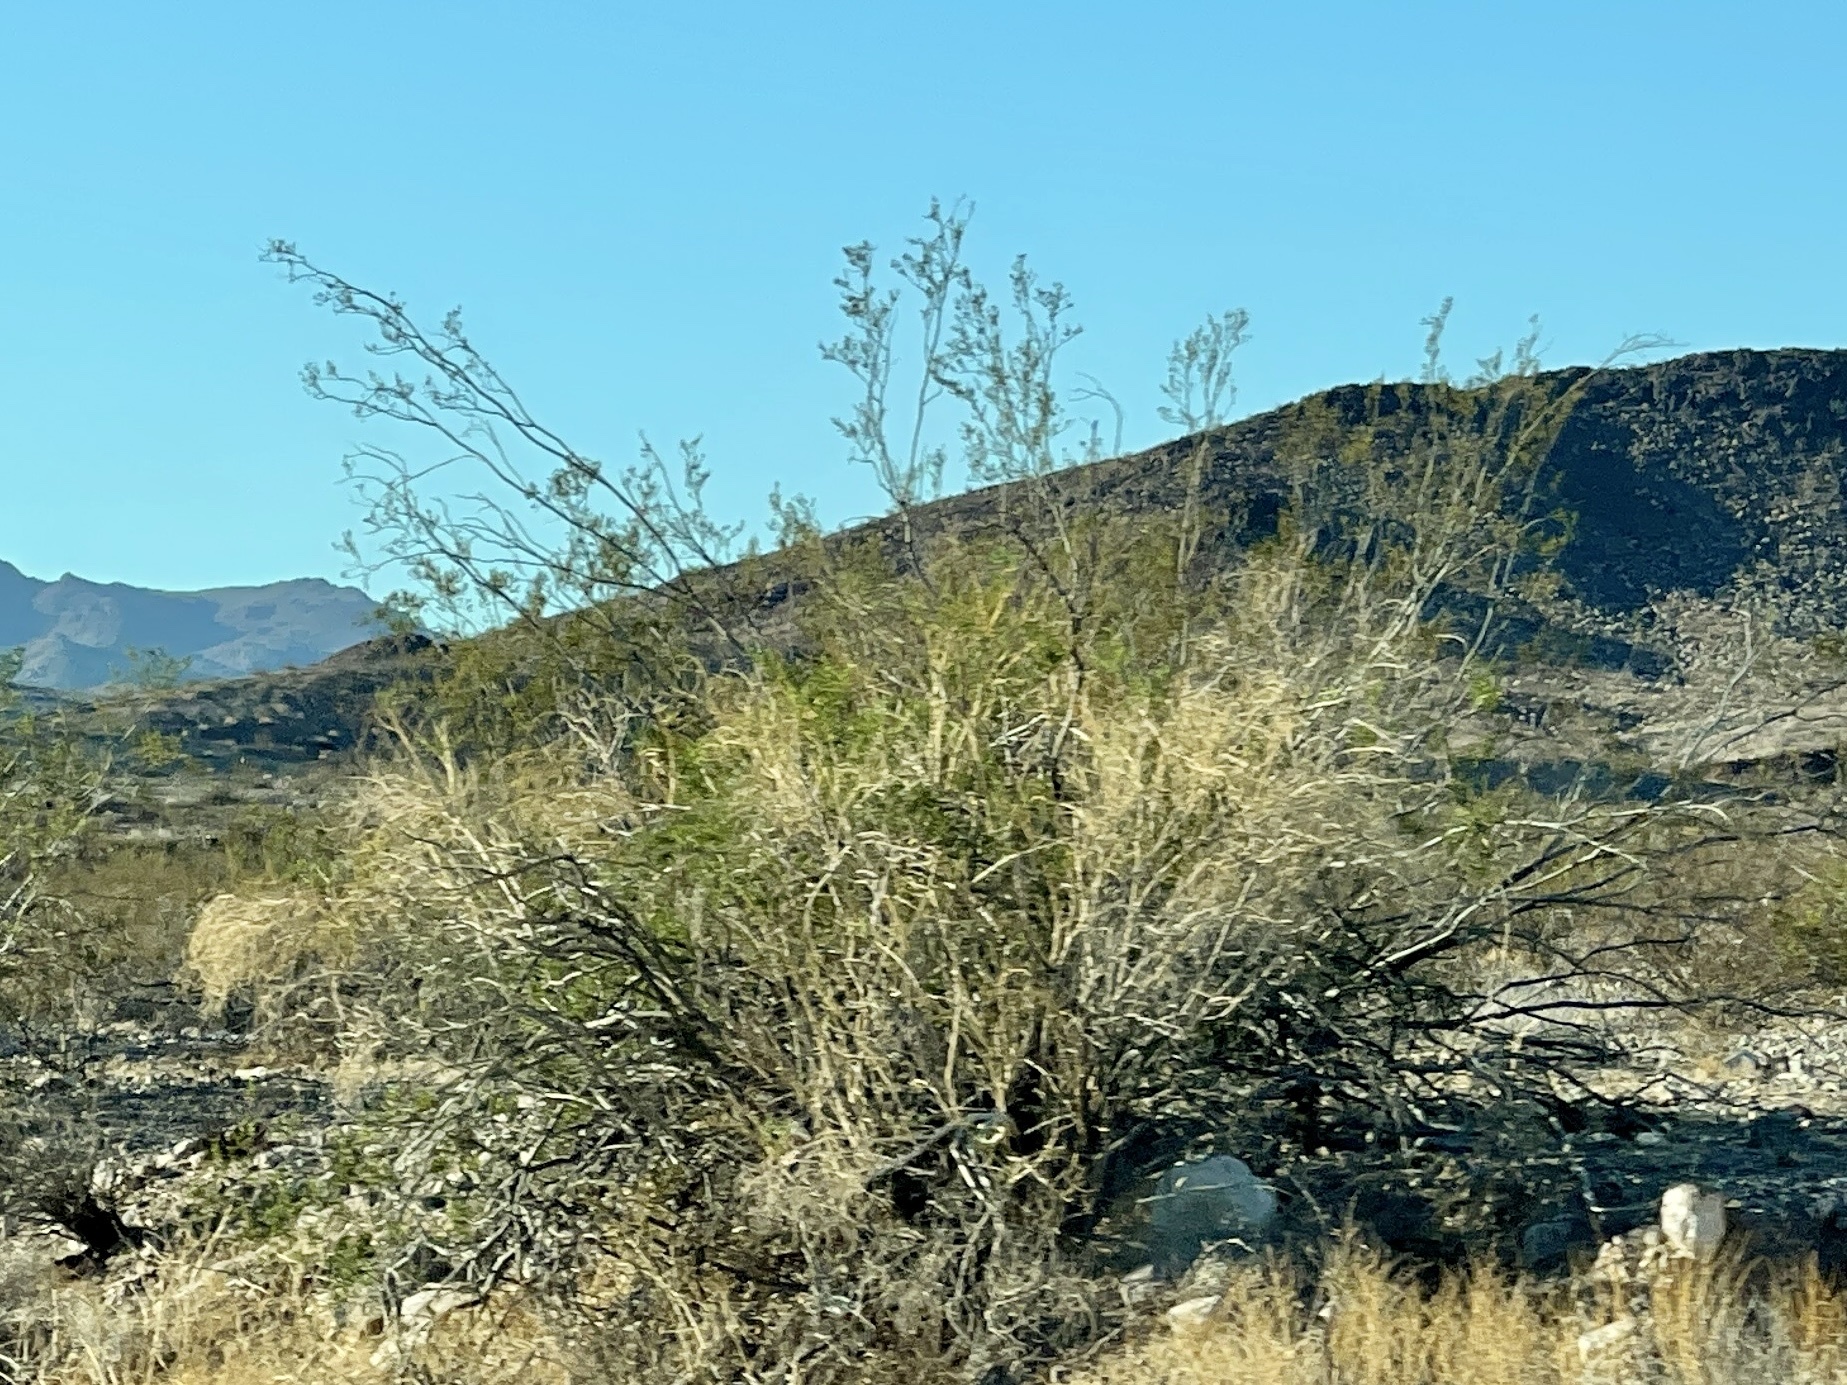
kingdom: Plantae
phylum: Tracheophyta
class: Magnoliopsida
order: Zygophyllales
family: Zygophyllaceae
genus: Larrea
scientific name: Larrea tridentata
